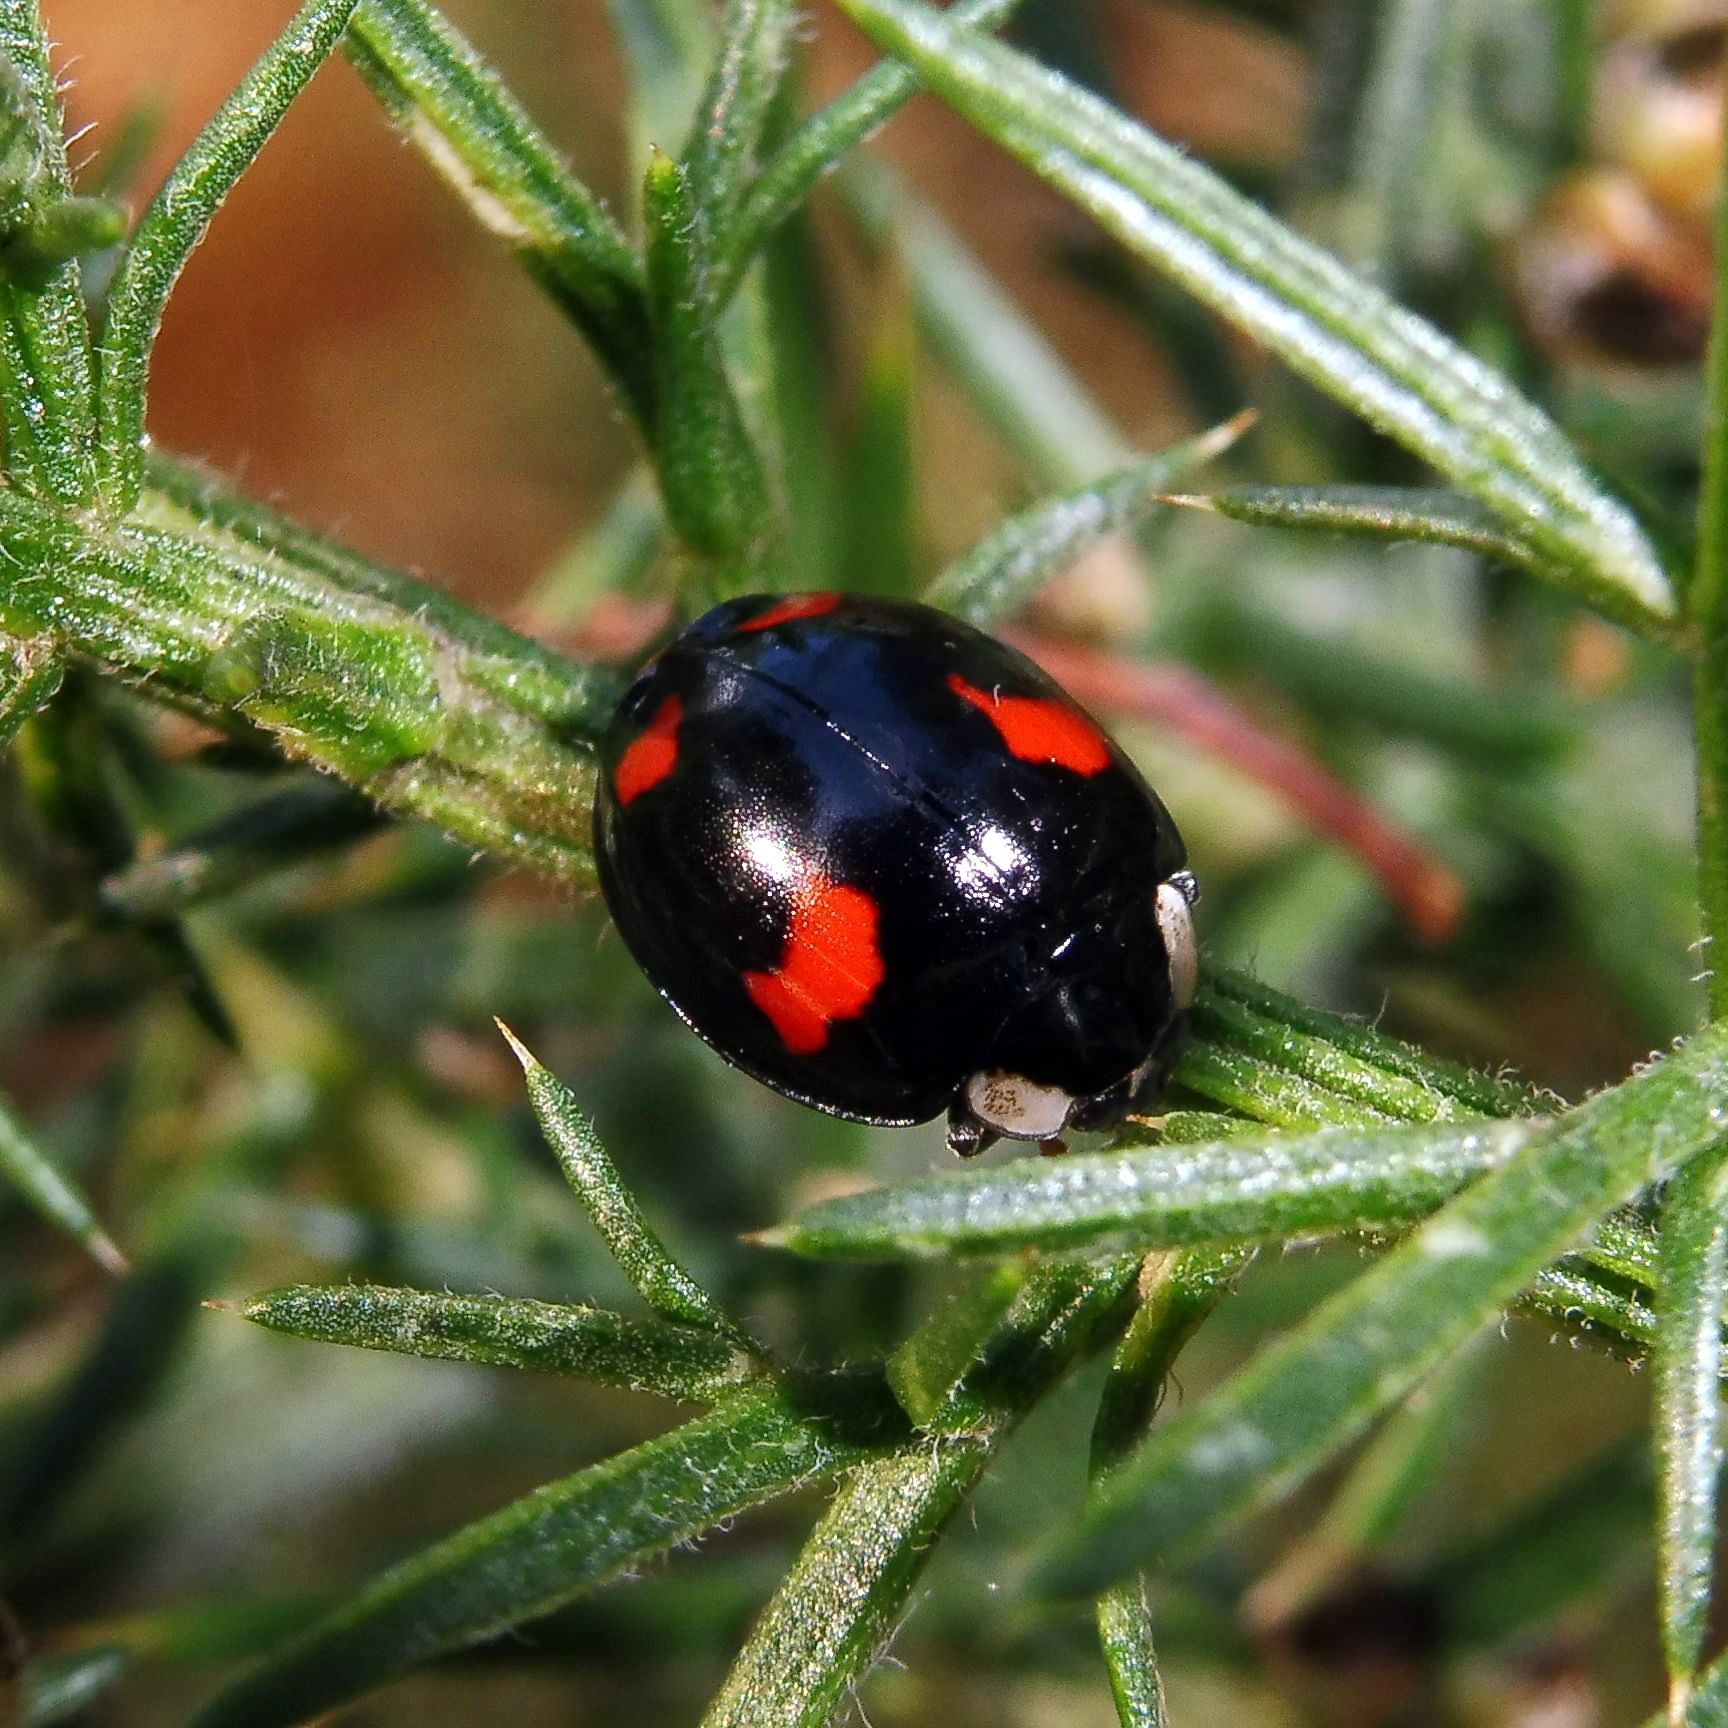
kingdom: Animalia
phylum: Arthropoda
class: Insecta
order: Coleoptera
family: Coccinellidae
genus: Harmonia
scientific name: Harmonia axyridis
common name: Harlequin ladybird
